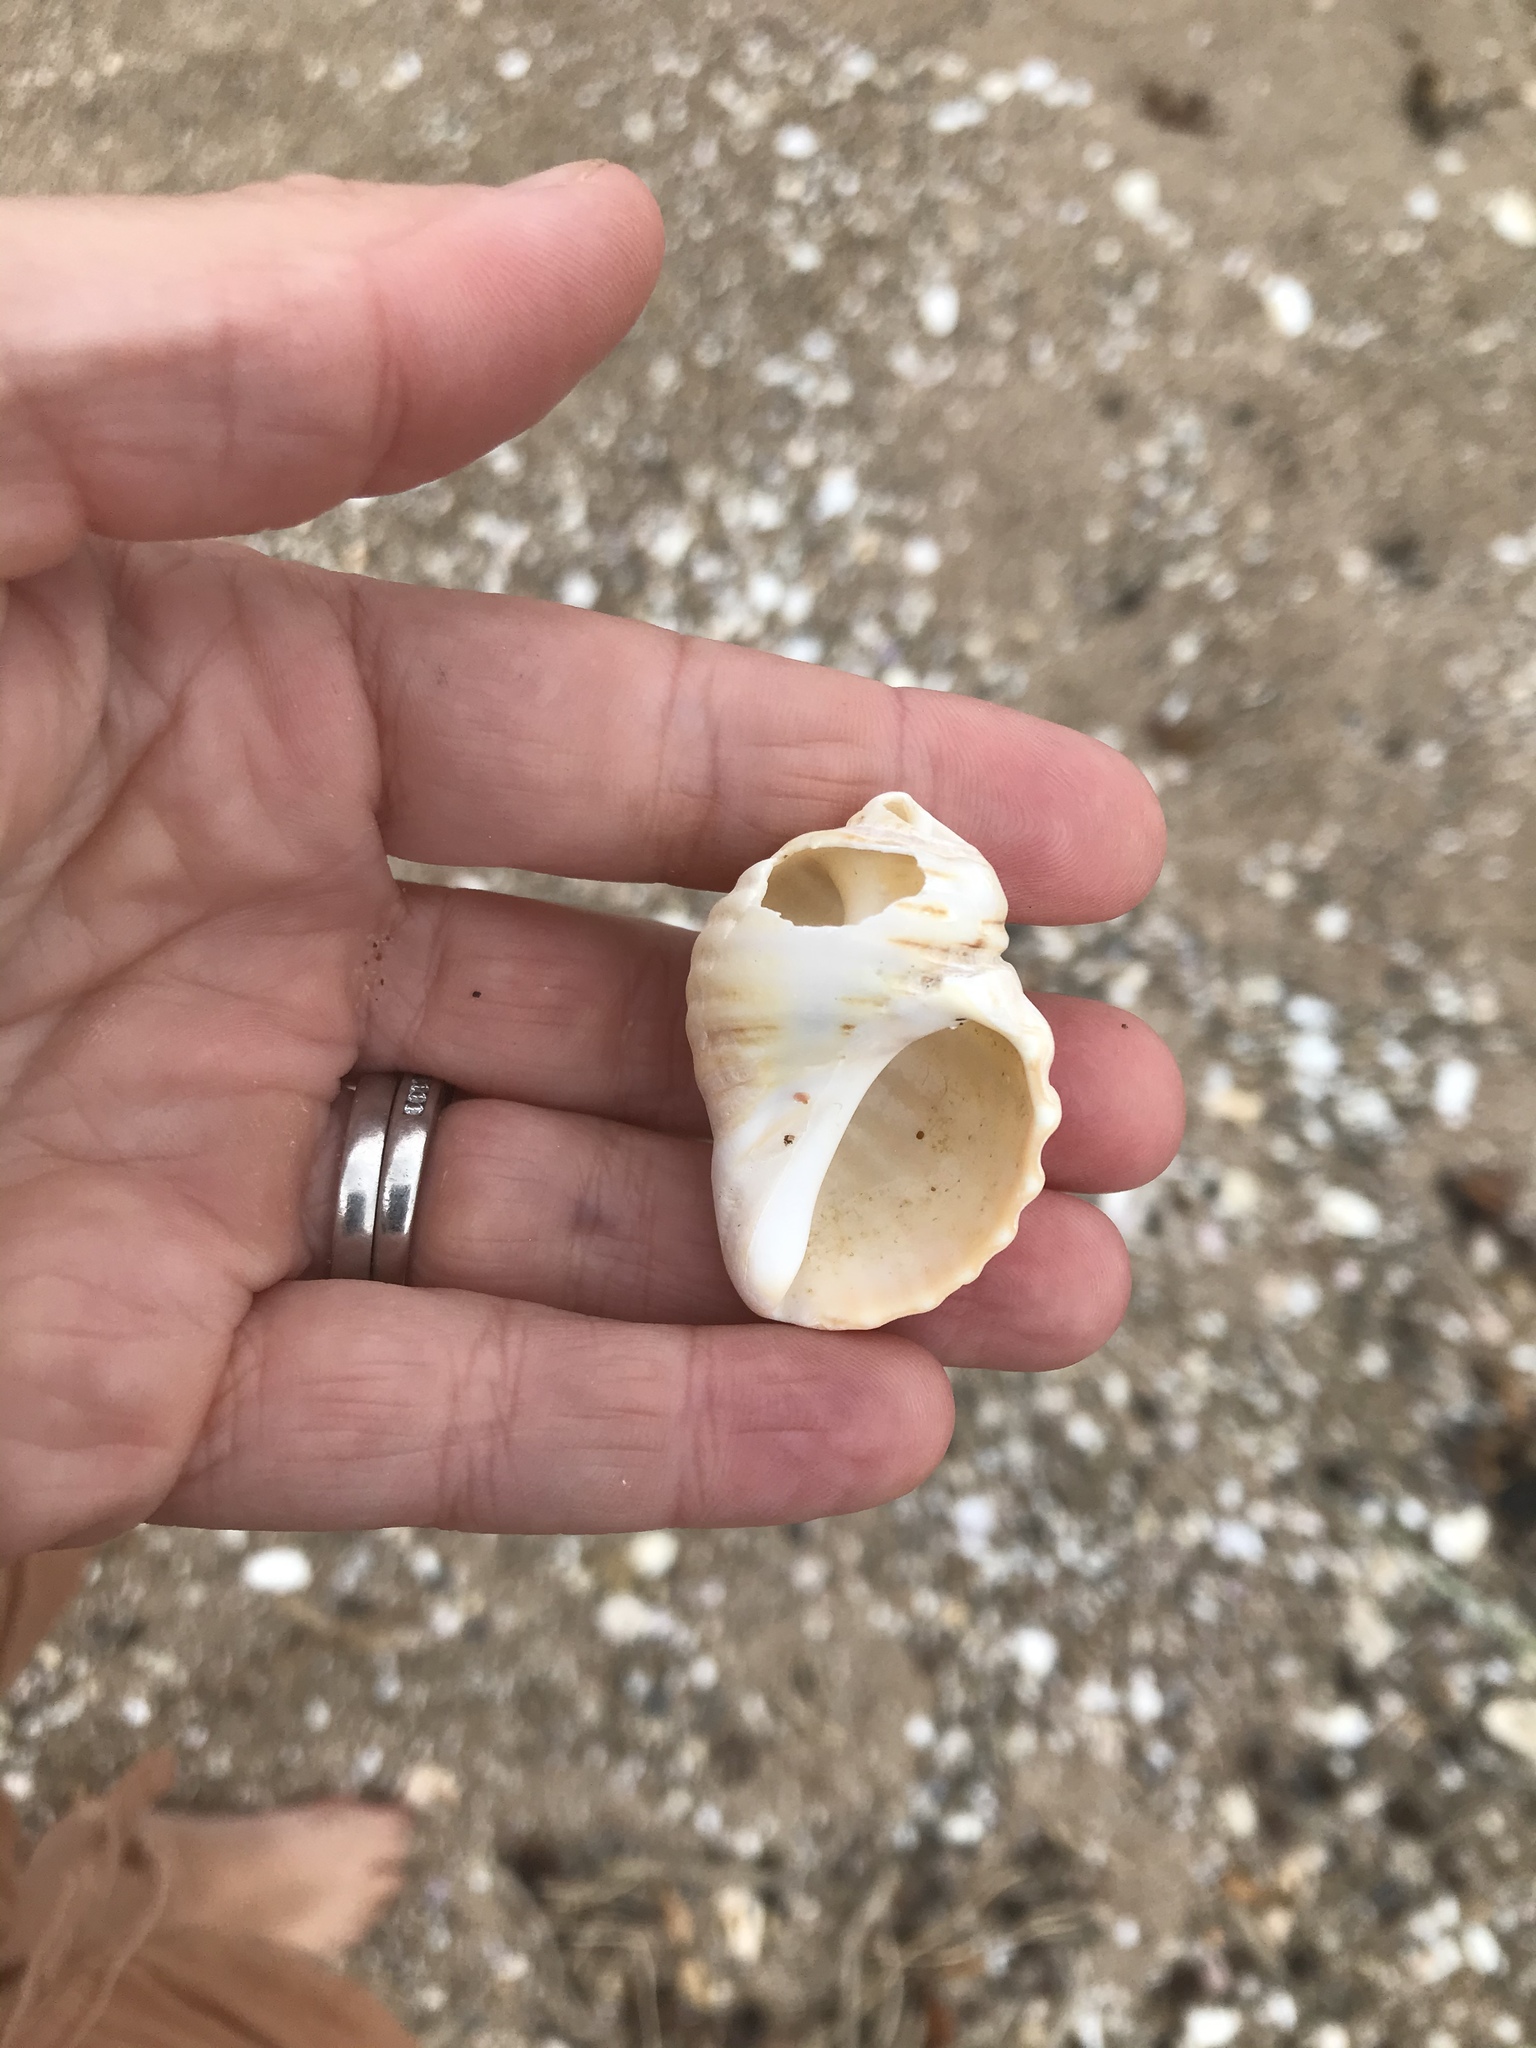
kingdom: Animalia
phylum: Mollusca
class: Gastropoda
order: Neogastropoda
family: Muricidae
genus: Dicathais
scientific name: Dicathais orbita
